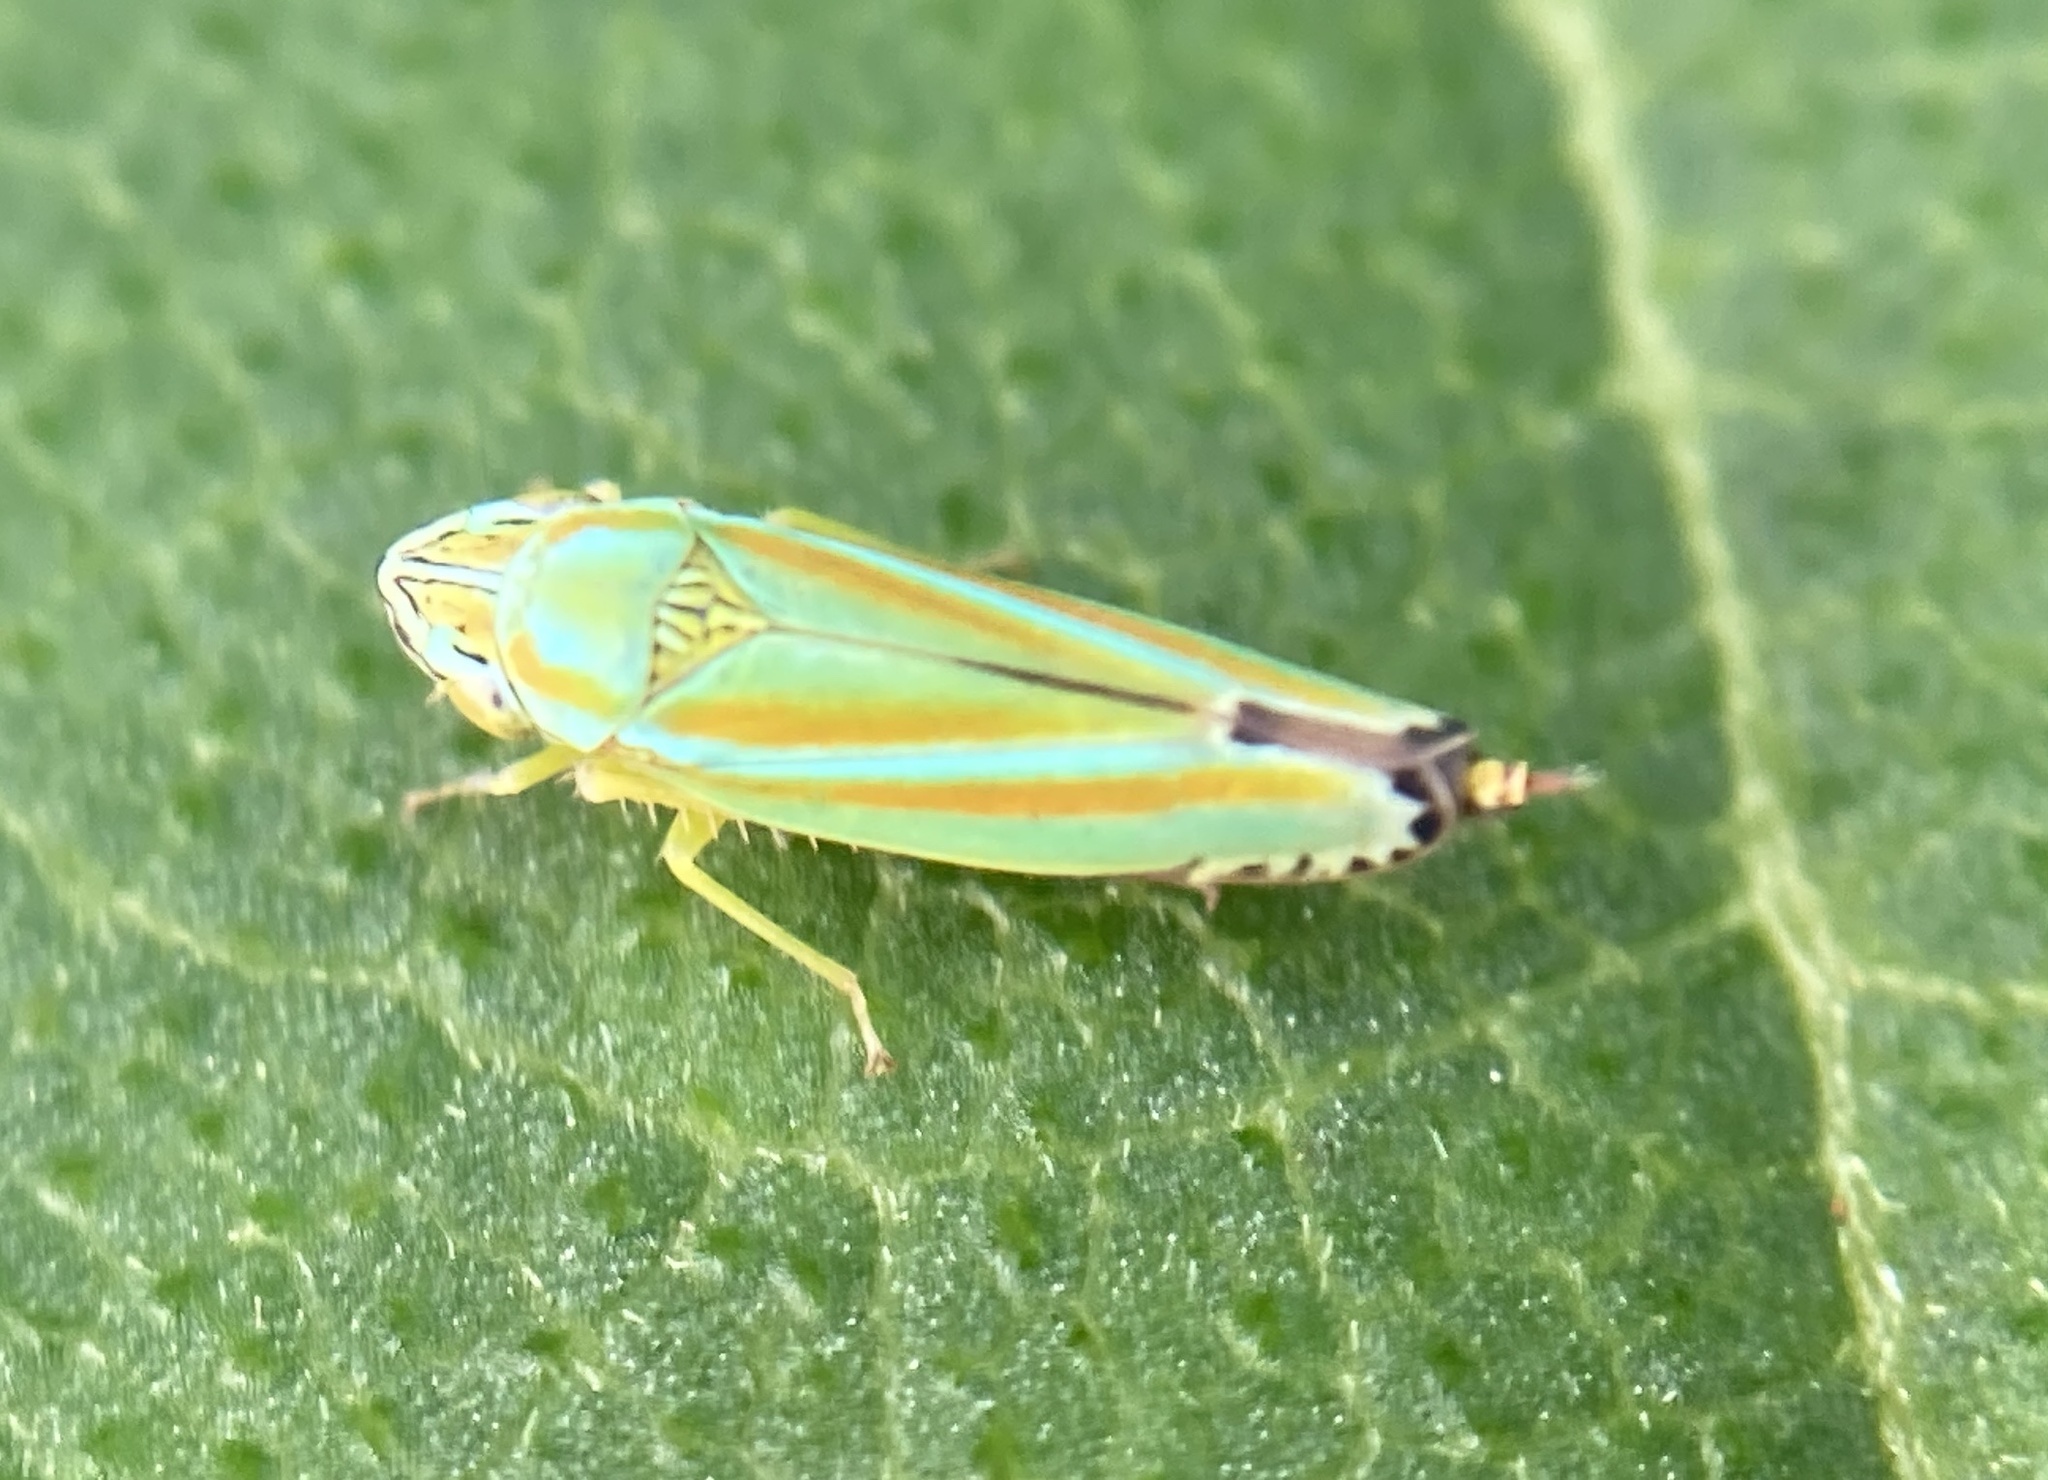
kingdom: Animalia
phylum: Arthropoda
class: Insecta
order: Hemiptera
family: Cicadellidae
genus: Graphocephala
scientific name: Graphocephala versuta
